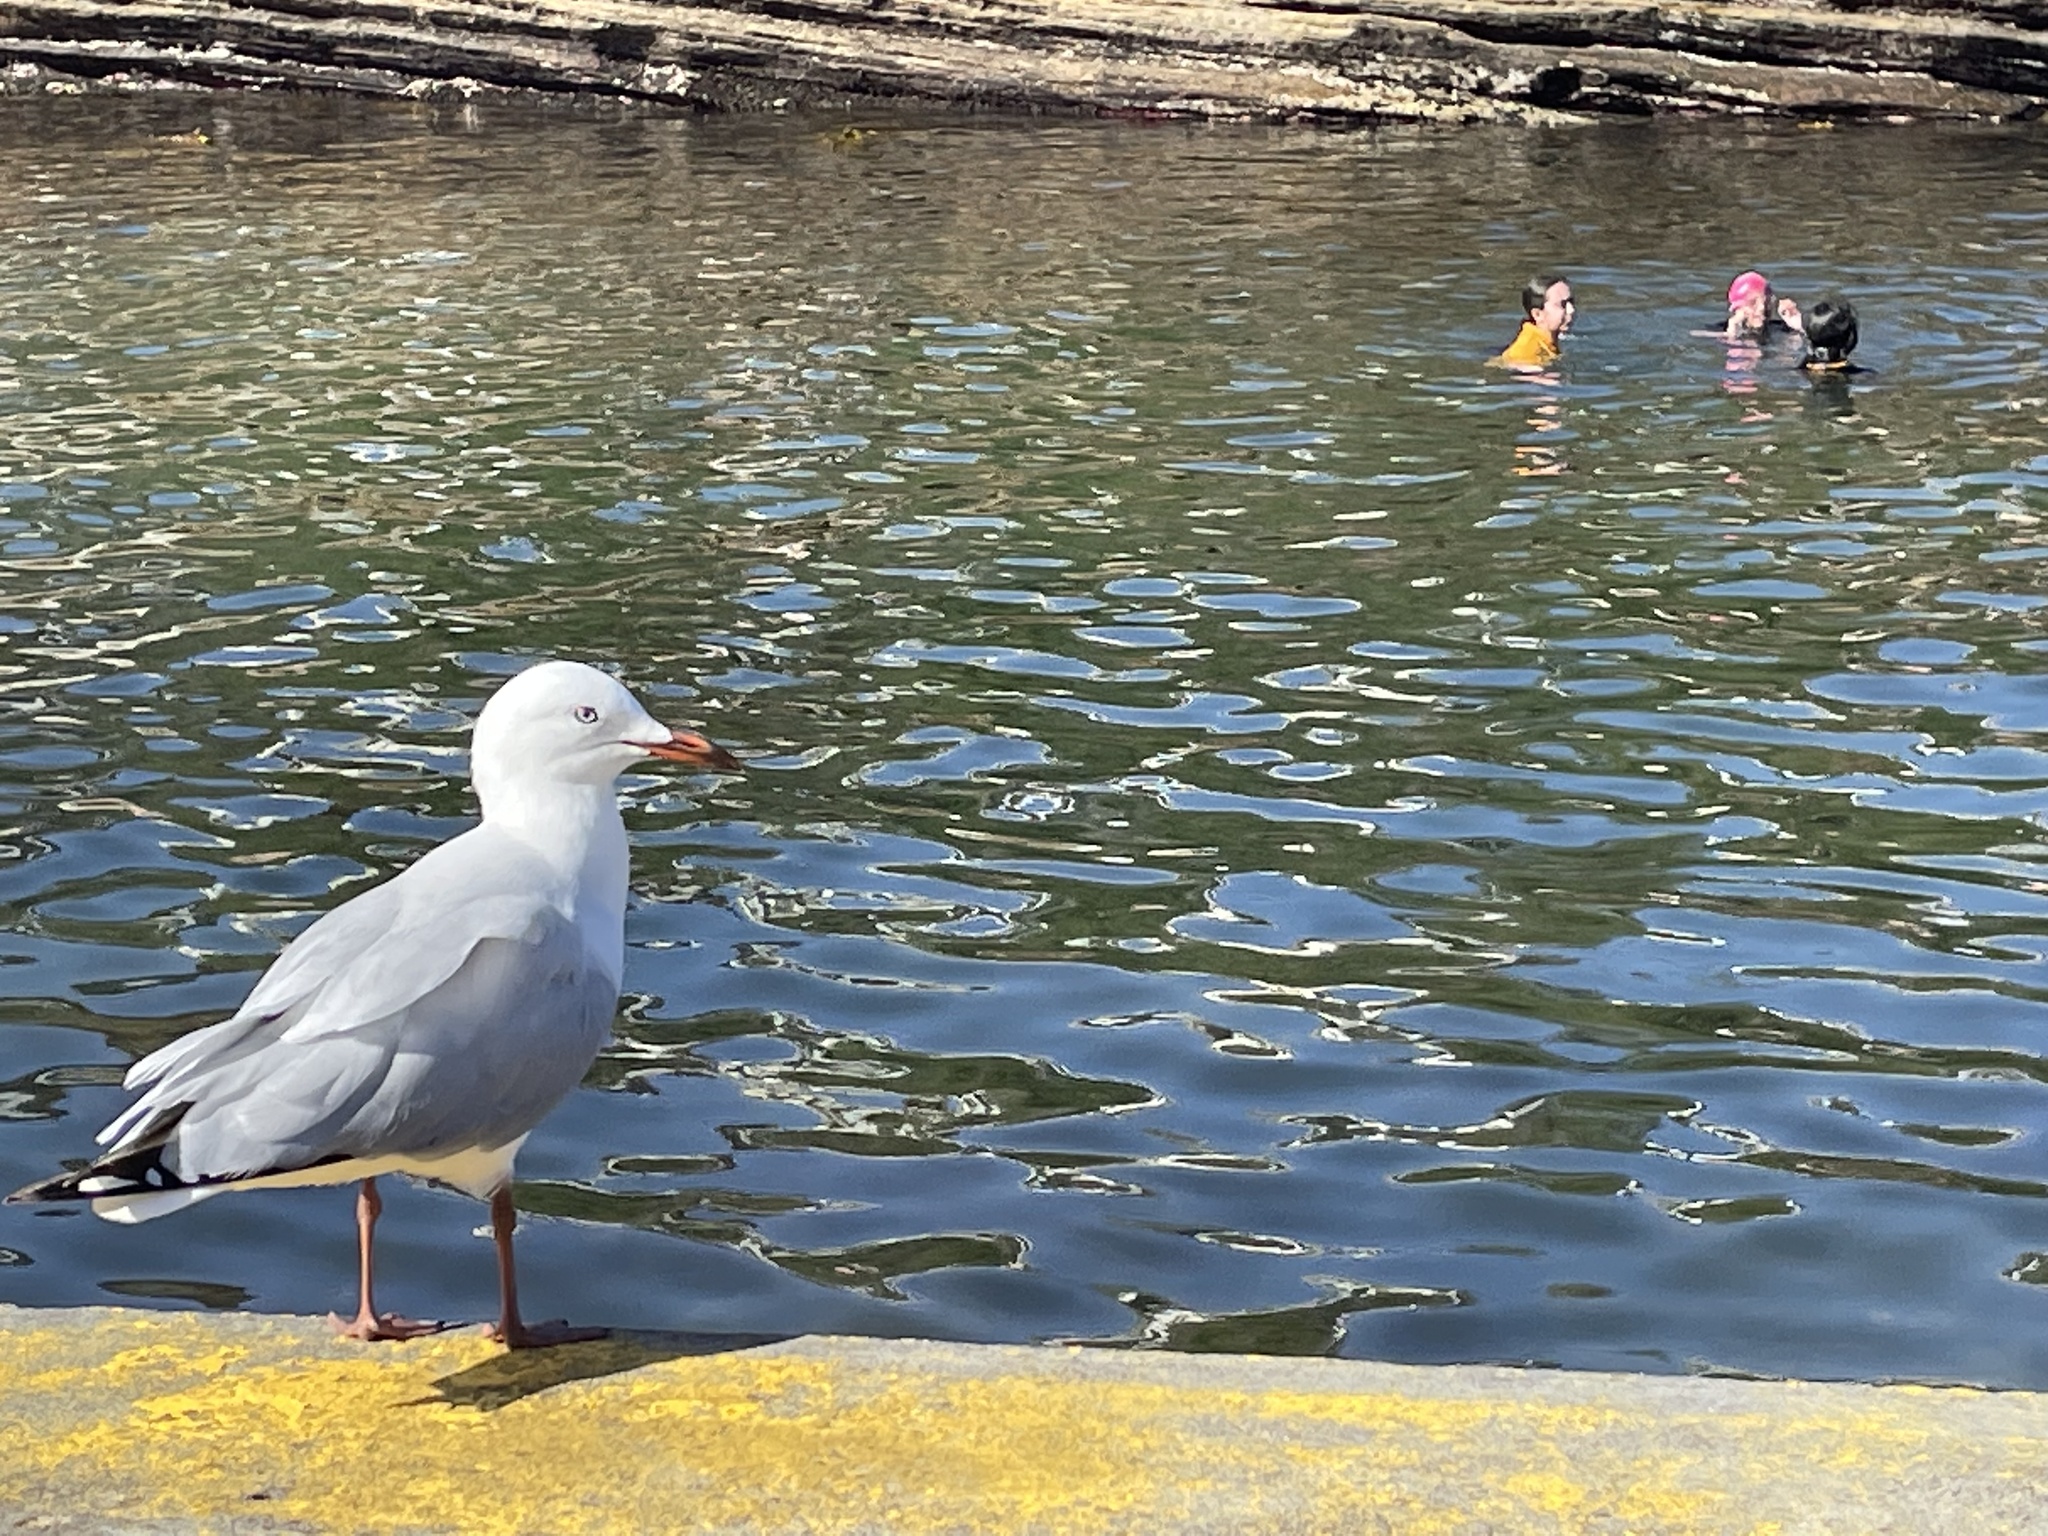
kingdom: Animalia
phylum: Chordata
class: Aves
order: Charadriiformes
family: Laridae
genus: Chroicocephalus
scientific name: Chroicocephalus novaehollandiae
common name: Silver gull
